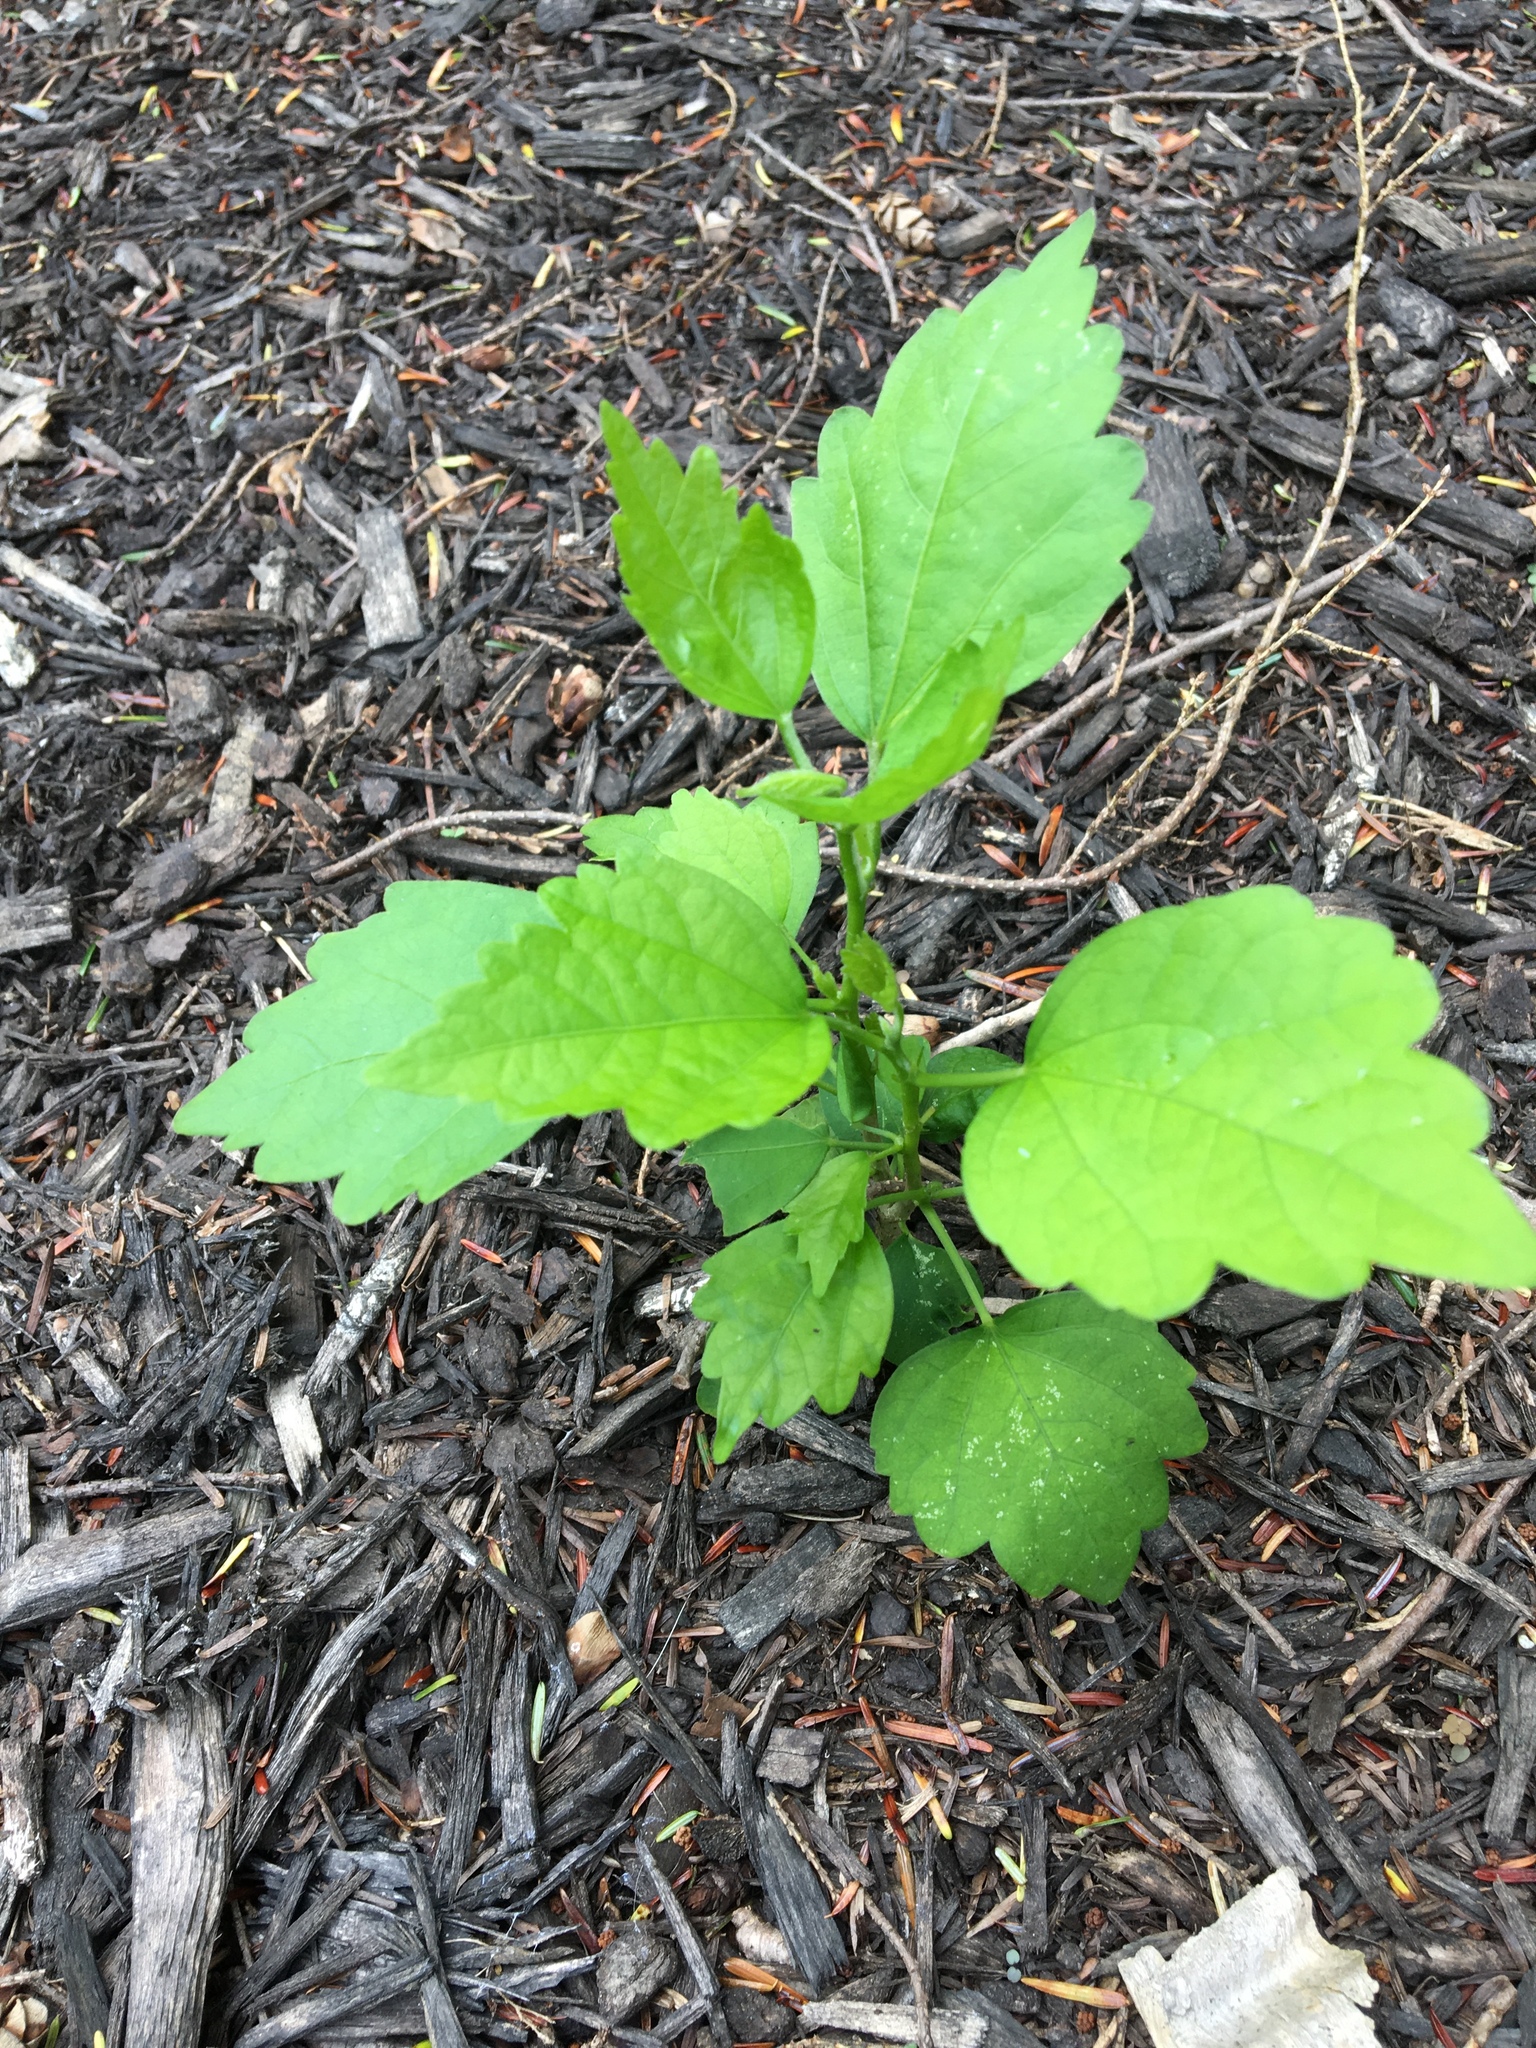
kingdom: Plantae
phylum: Tracheophyta
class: Magnoliopsida
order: Malvales
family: Malvaceae
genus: Hibiscus
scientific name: Hibiscus syriacus
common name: Syrian ketmia
